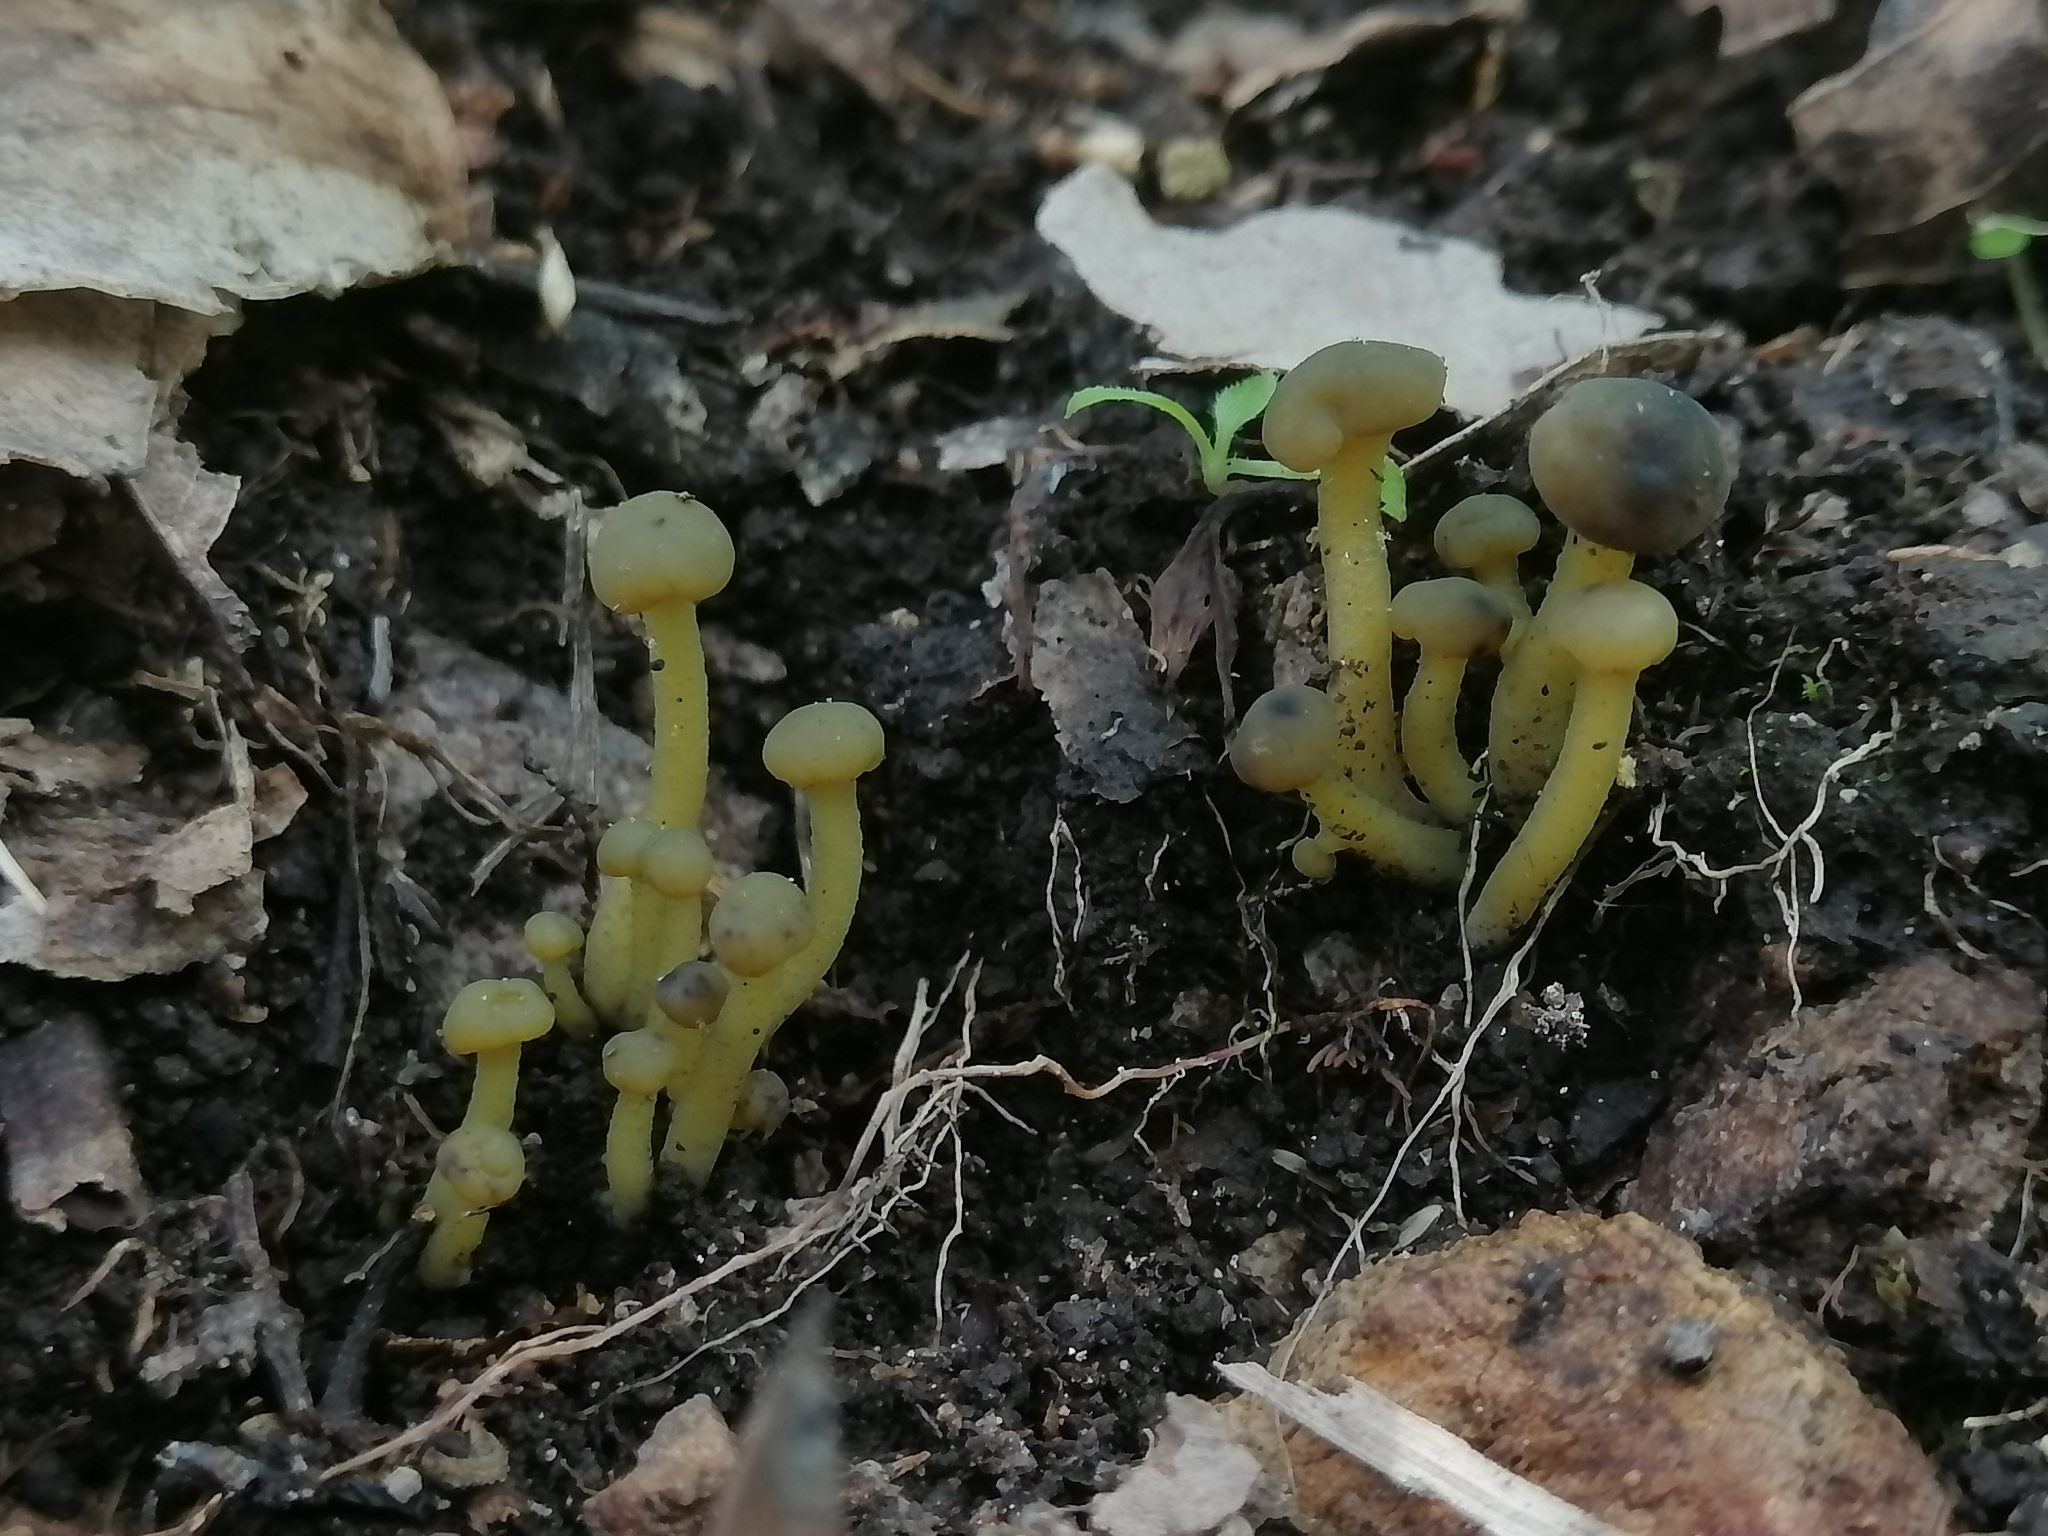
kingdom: Fungi
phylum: Ascomycota
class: Leotiomycetes
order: Leotiales
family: Leotiaceae
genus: Leotia
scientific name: Leotia lubrica
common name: Jellybaby
